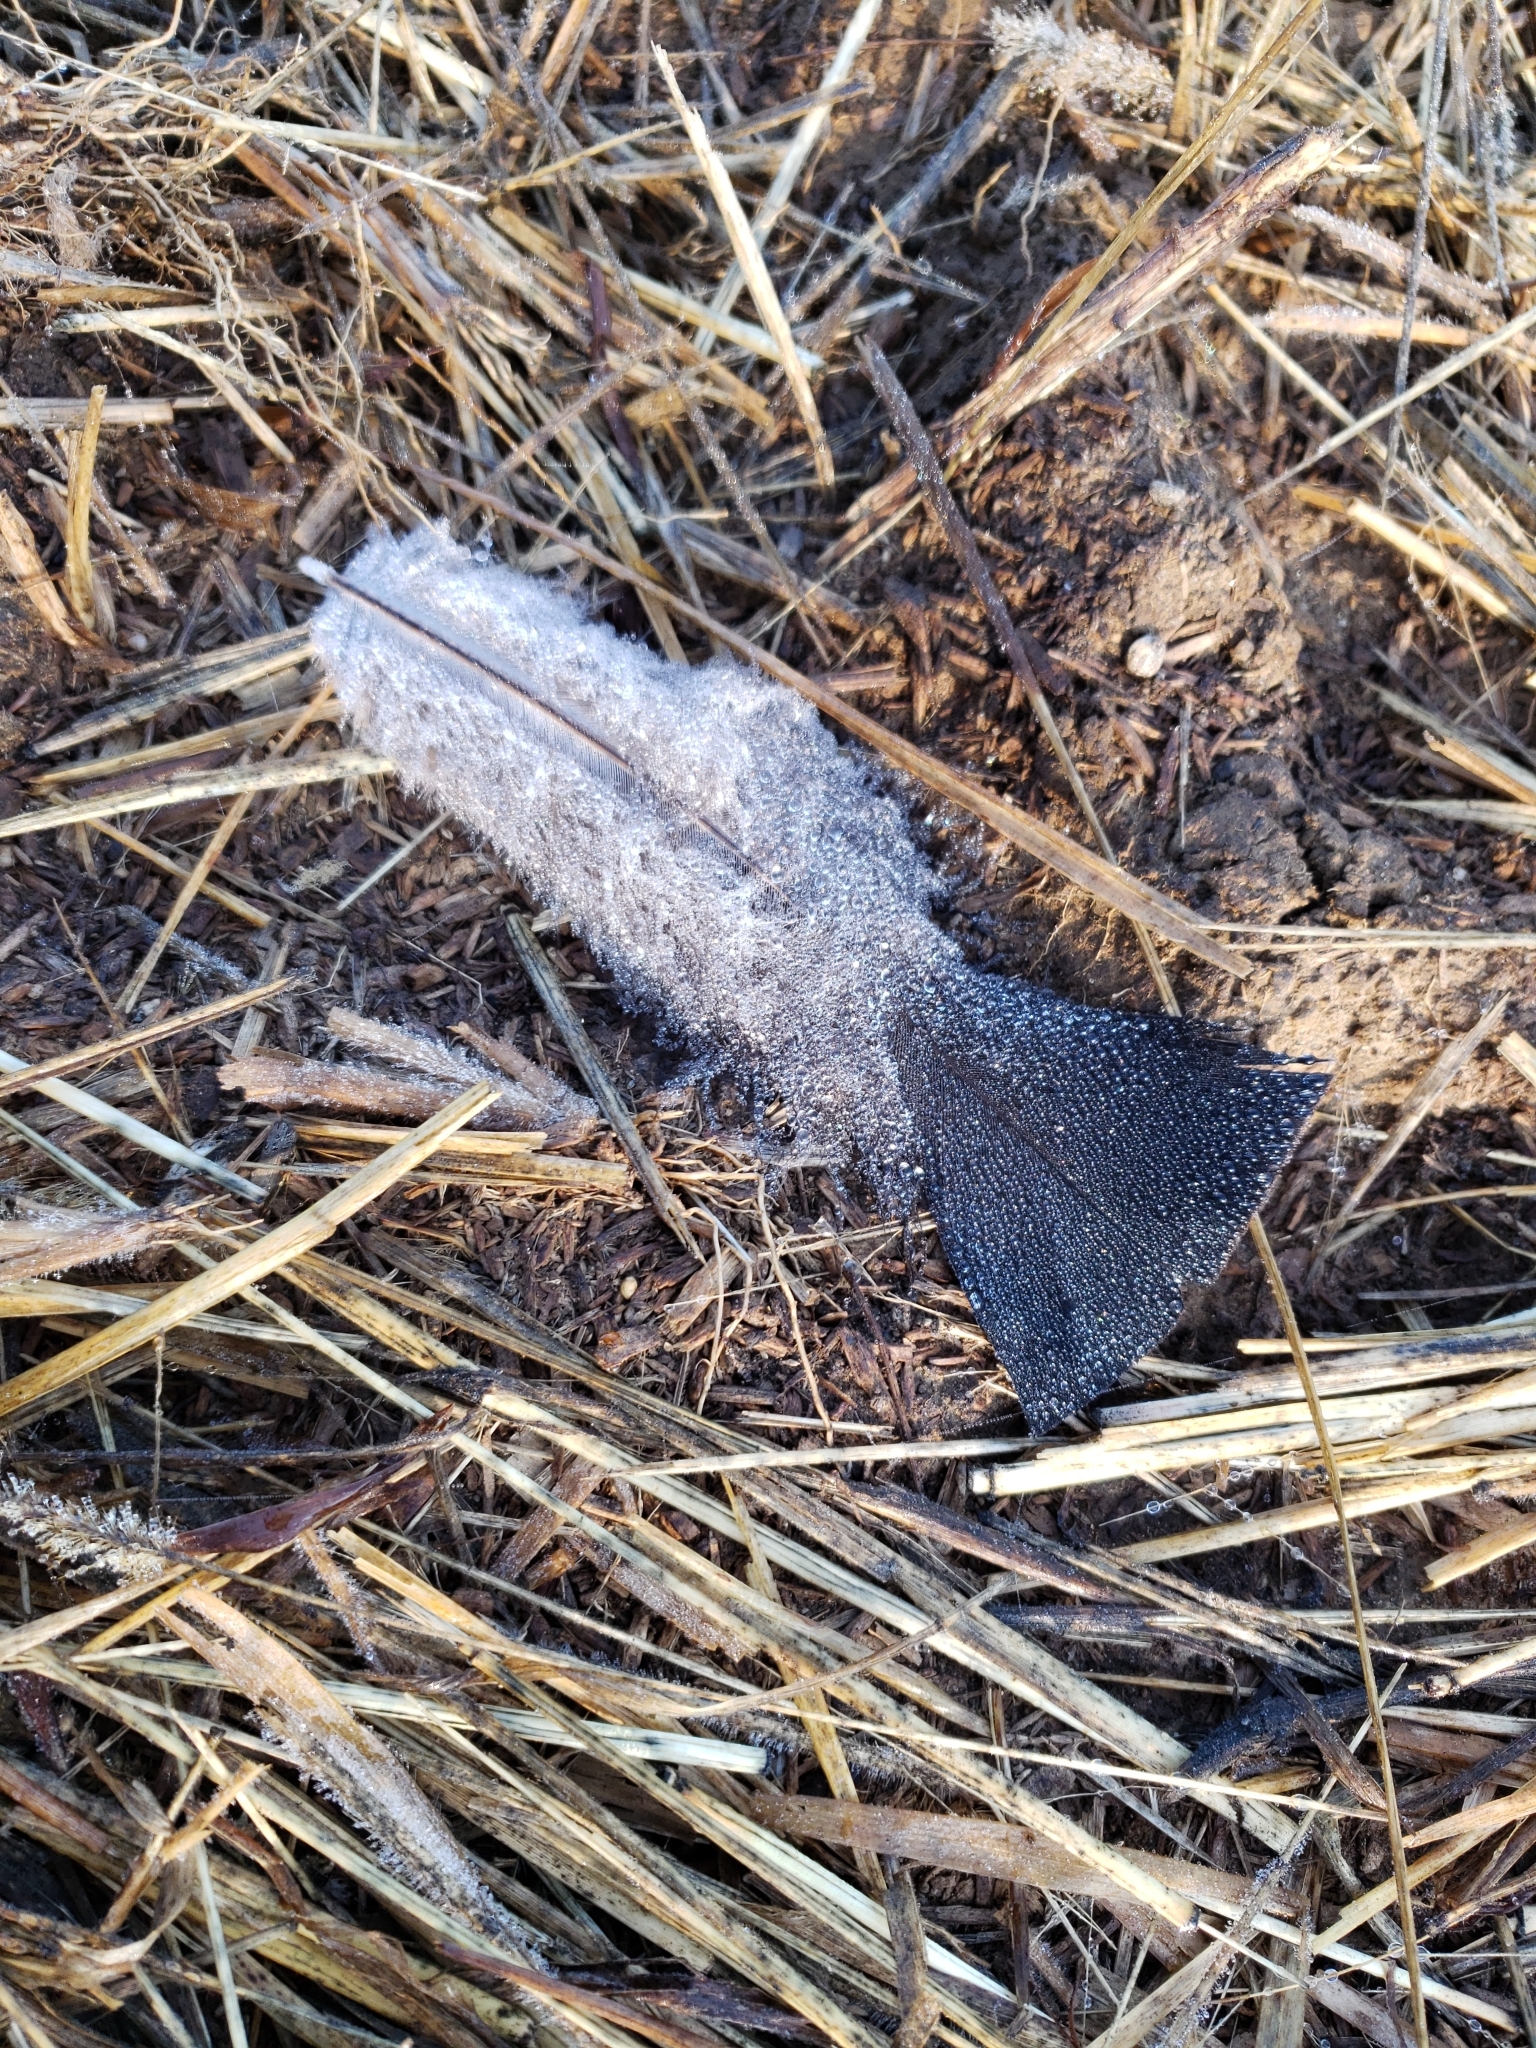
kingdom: Animalia
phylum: Chordata
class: Aves
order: Galliformes
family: Phasianidae
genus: Meleagris
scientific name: Meleagris gallopavo
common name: Wild turkey
